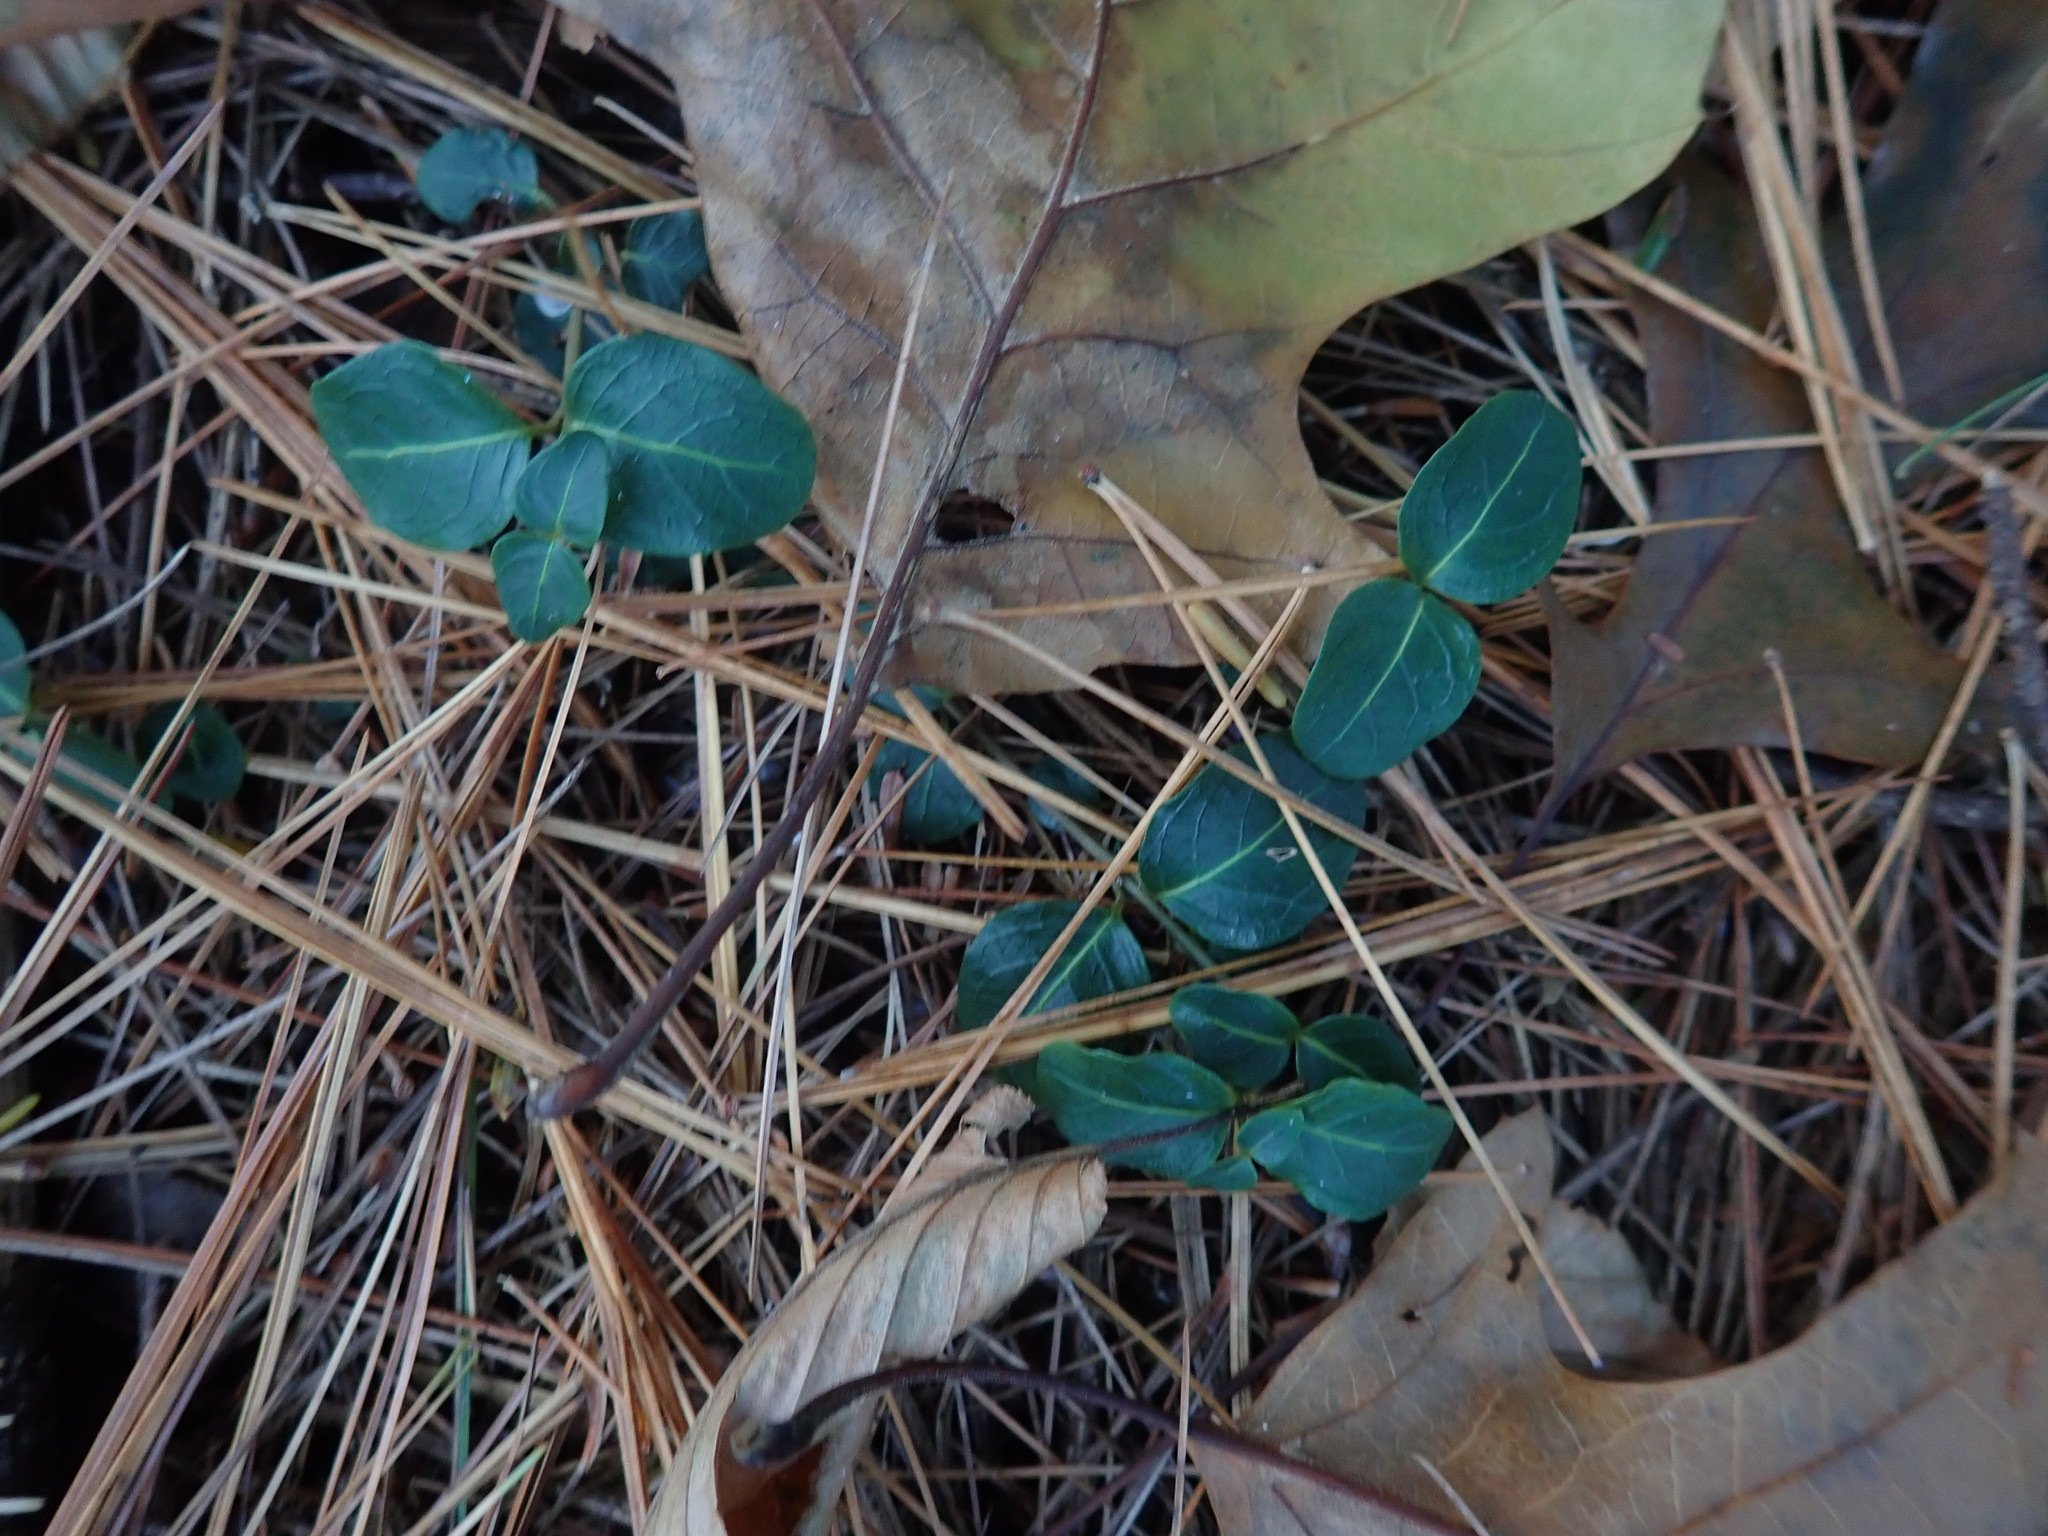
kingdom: Plantae
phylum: Tracheophyta
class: Magnoliopsida
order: Gentianales
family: Rubiaceae
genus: Mitchella
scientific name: Mitchella repens
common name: Partridge-berry
